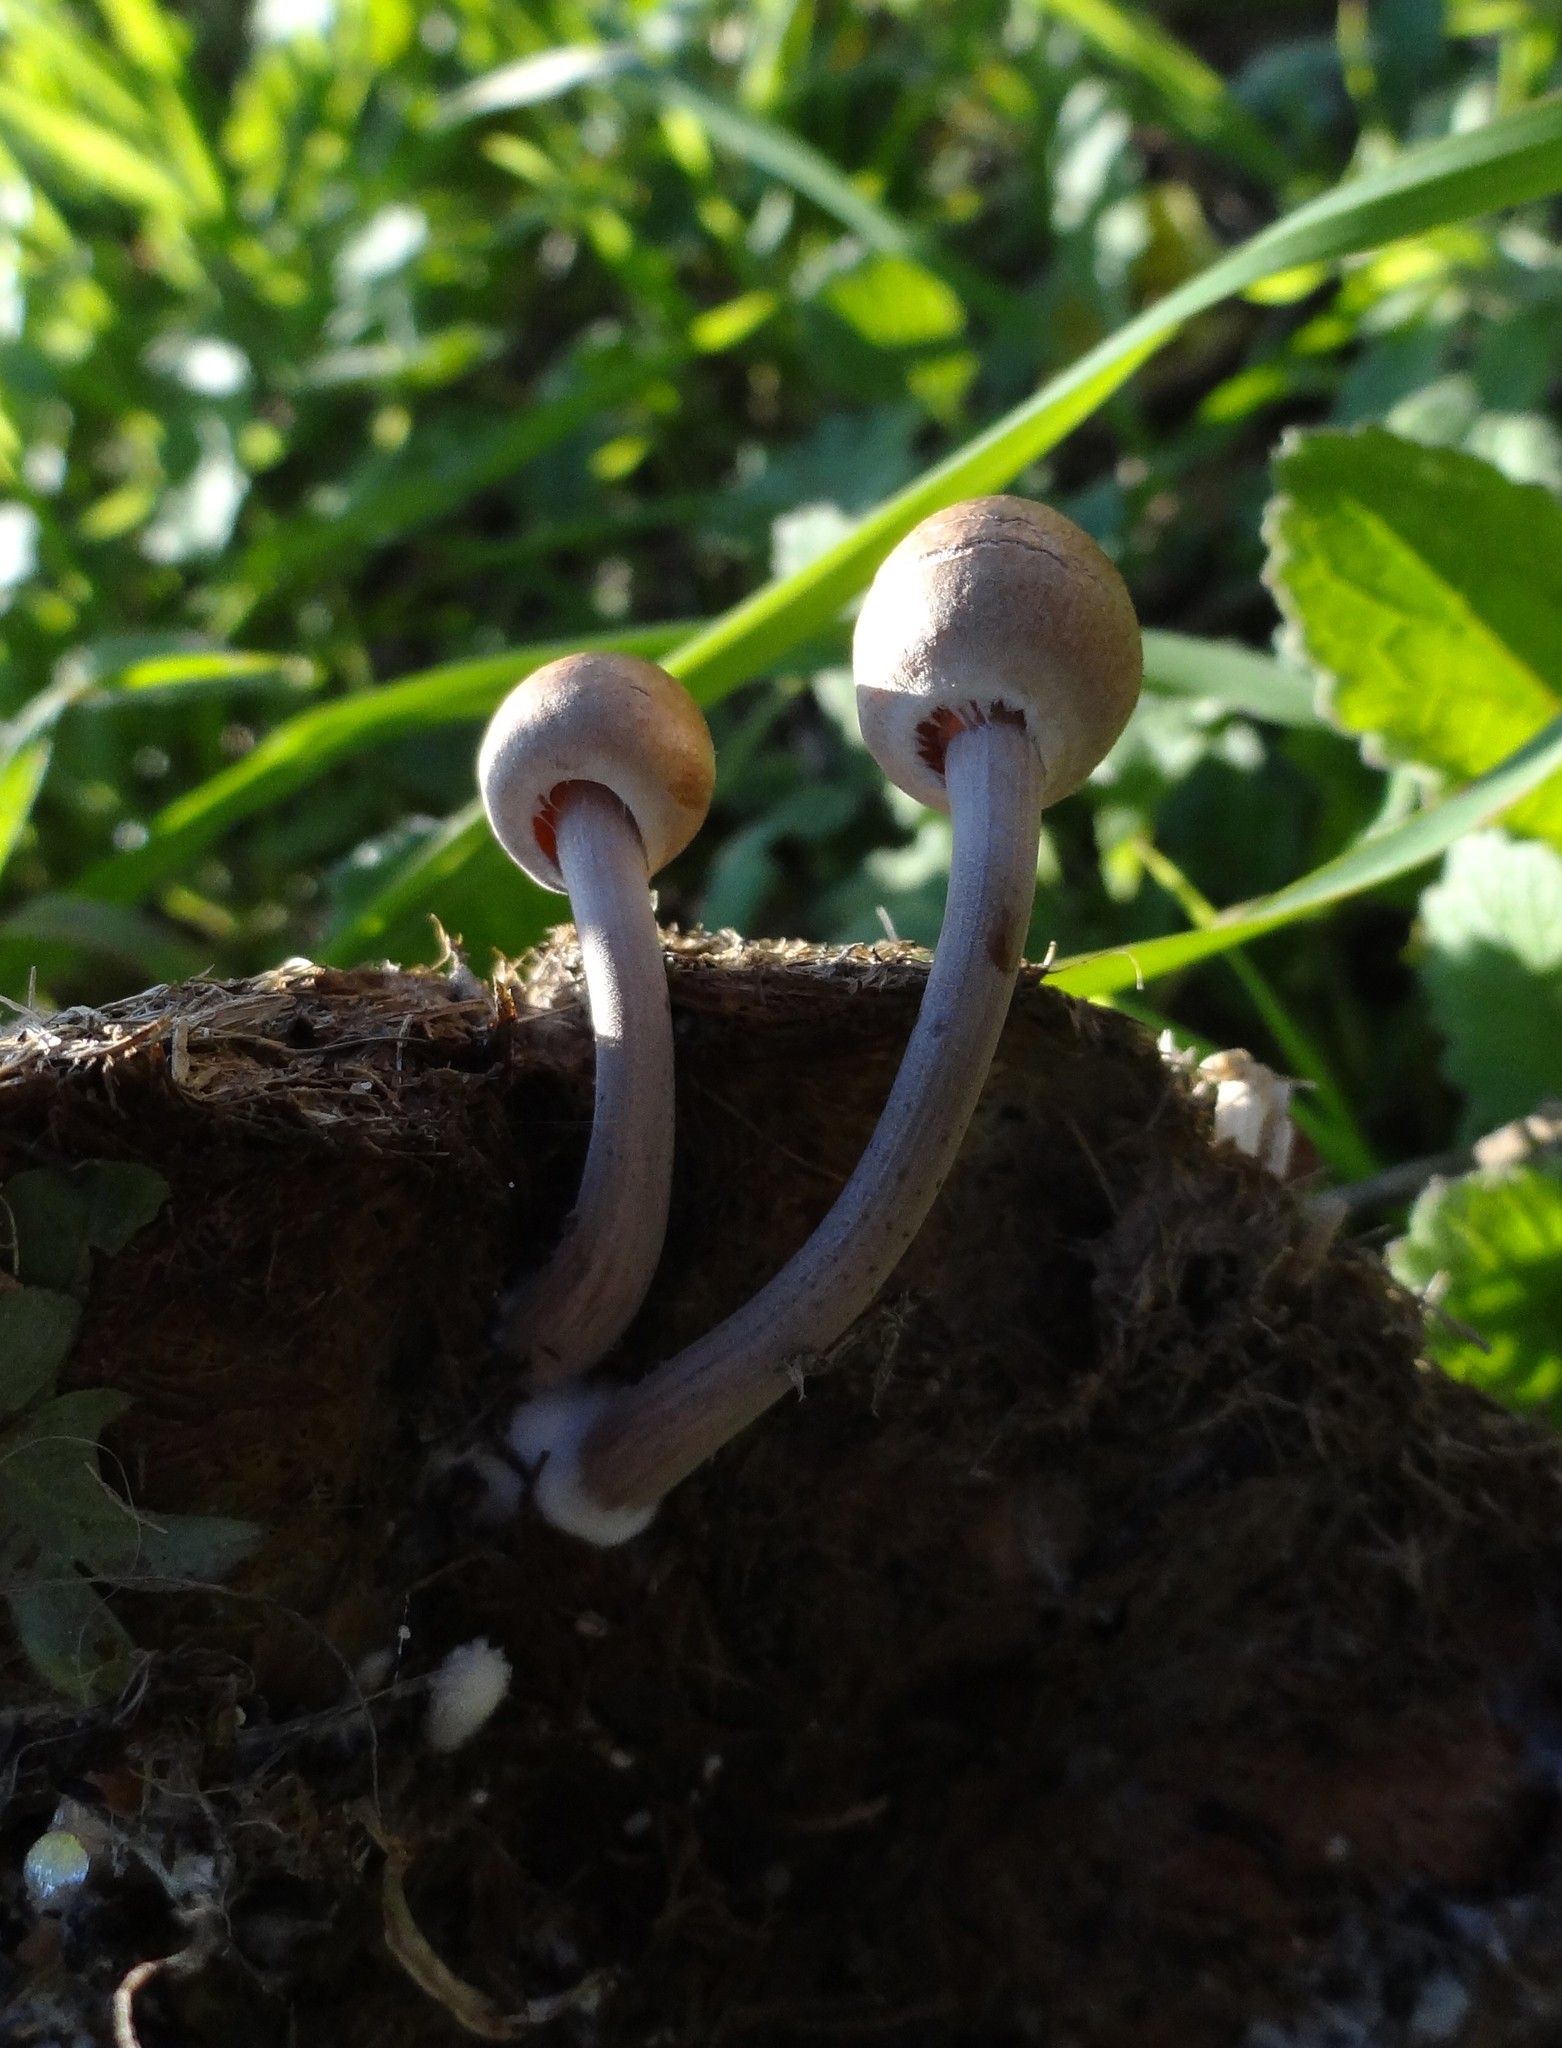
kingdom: Fungi
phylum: Basidiomycota
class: Agaricomycetes
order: Agaricales
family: Bolbitiaceae
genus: Panaeolus
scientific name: Panaeolus papilionaceus
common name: Petticoat mottlegill
